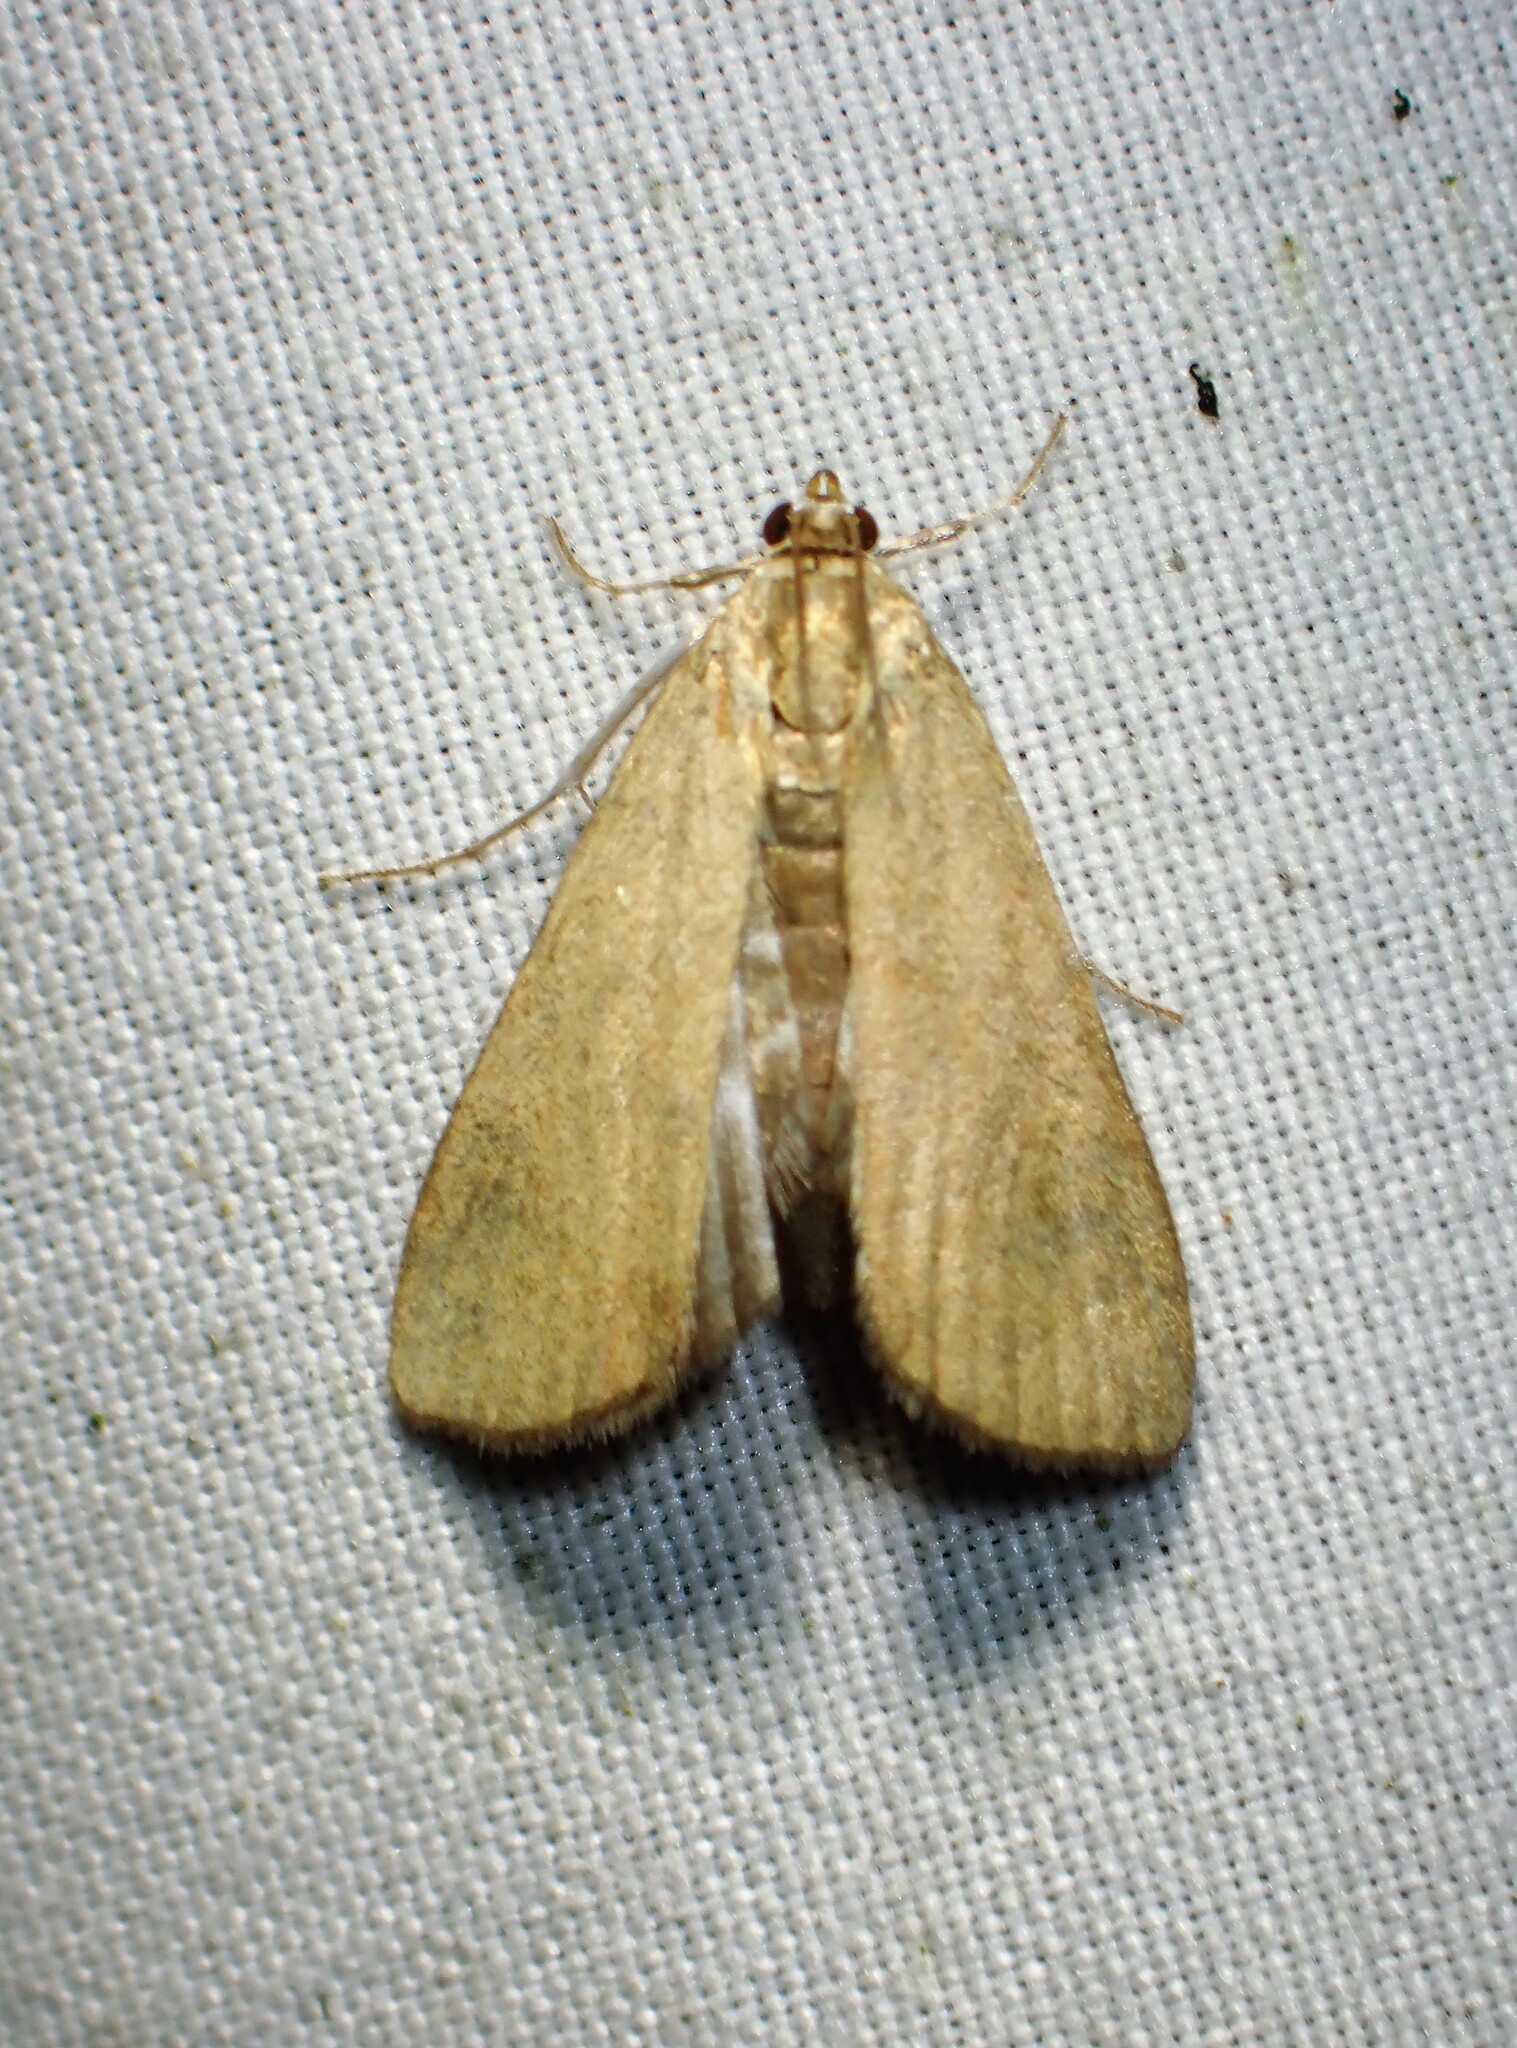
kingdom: Animalia
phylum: Arthropoda
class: Insecta
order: Lepidoptera
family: Crambidae
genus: Elophila
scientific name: Elophila gyralis
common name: Waterlily borer moth
